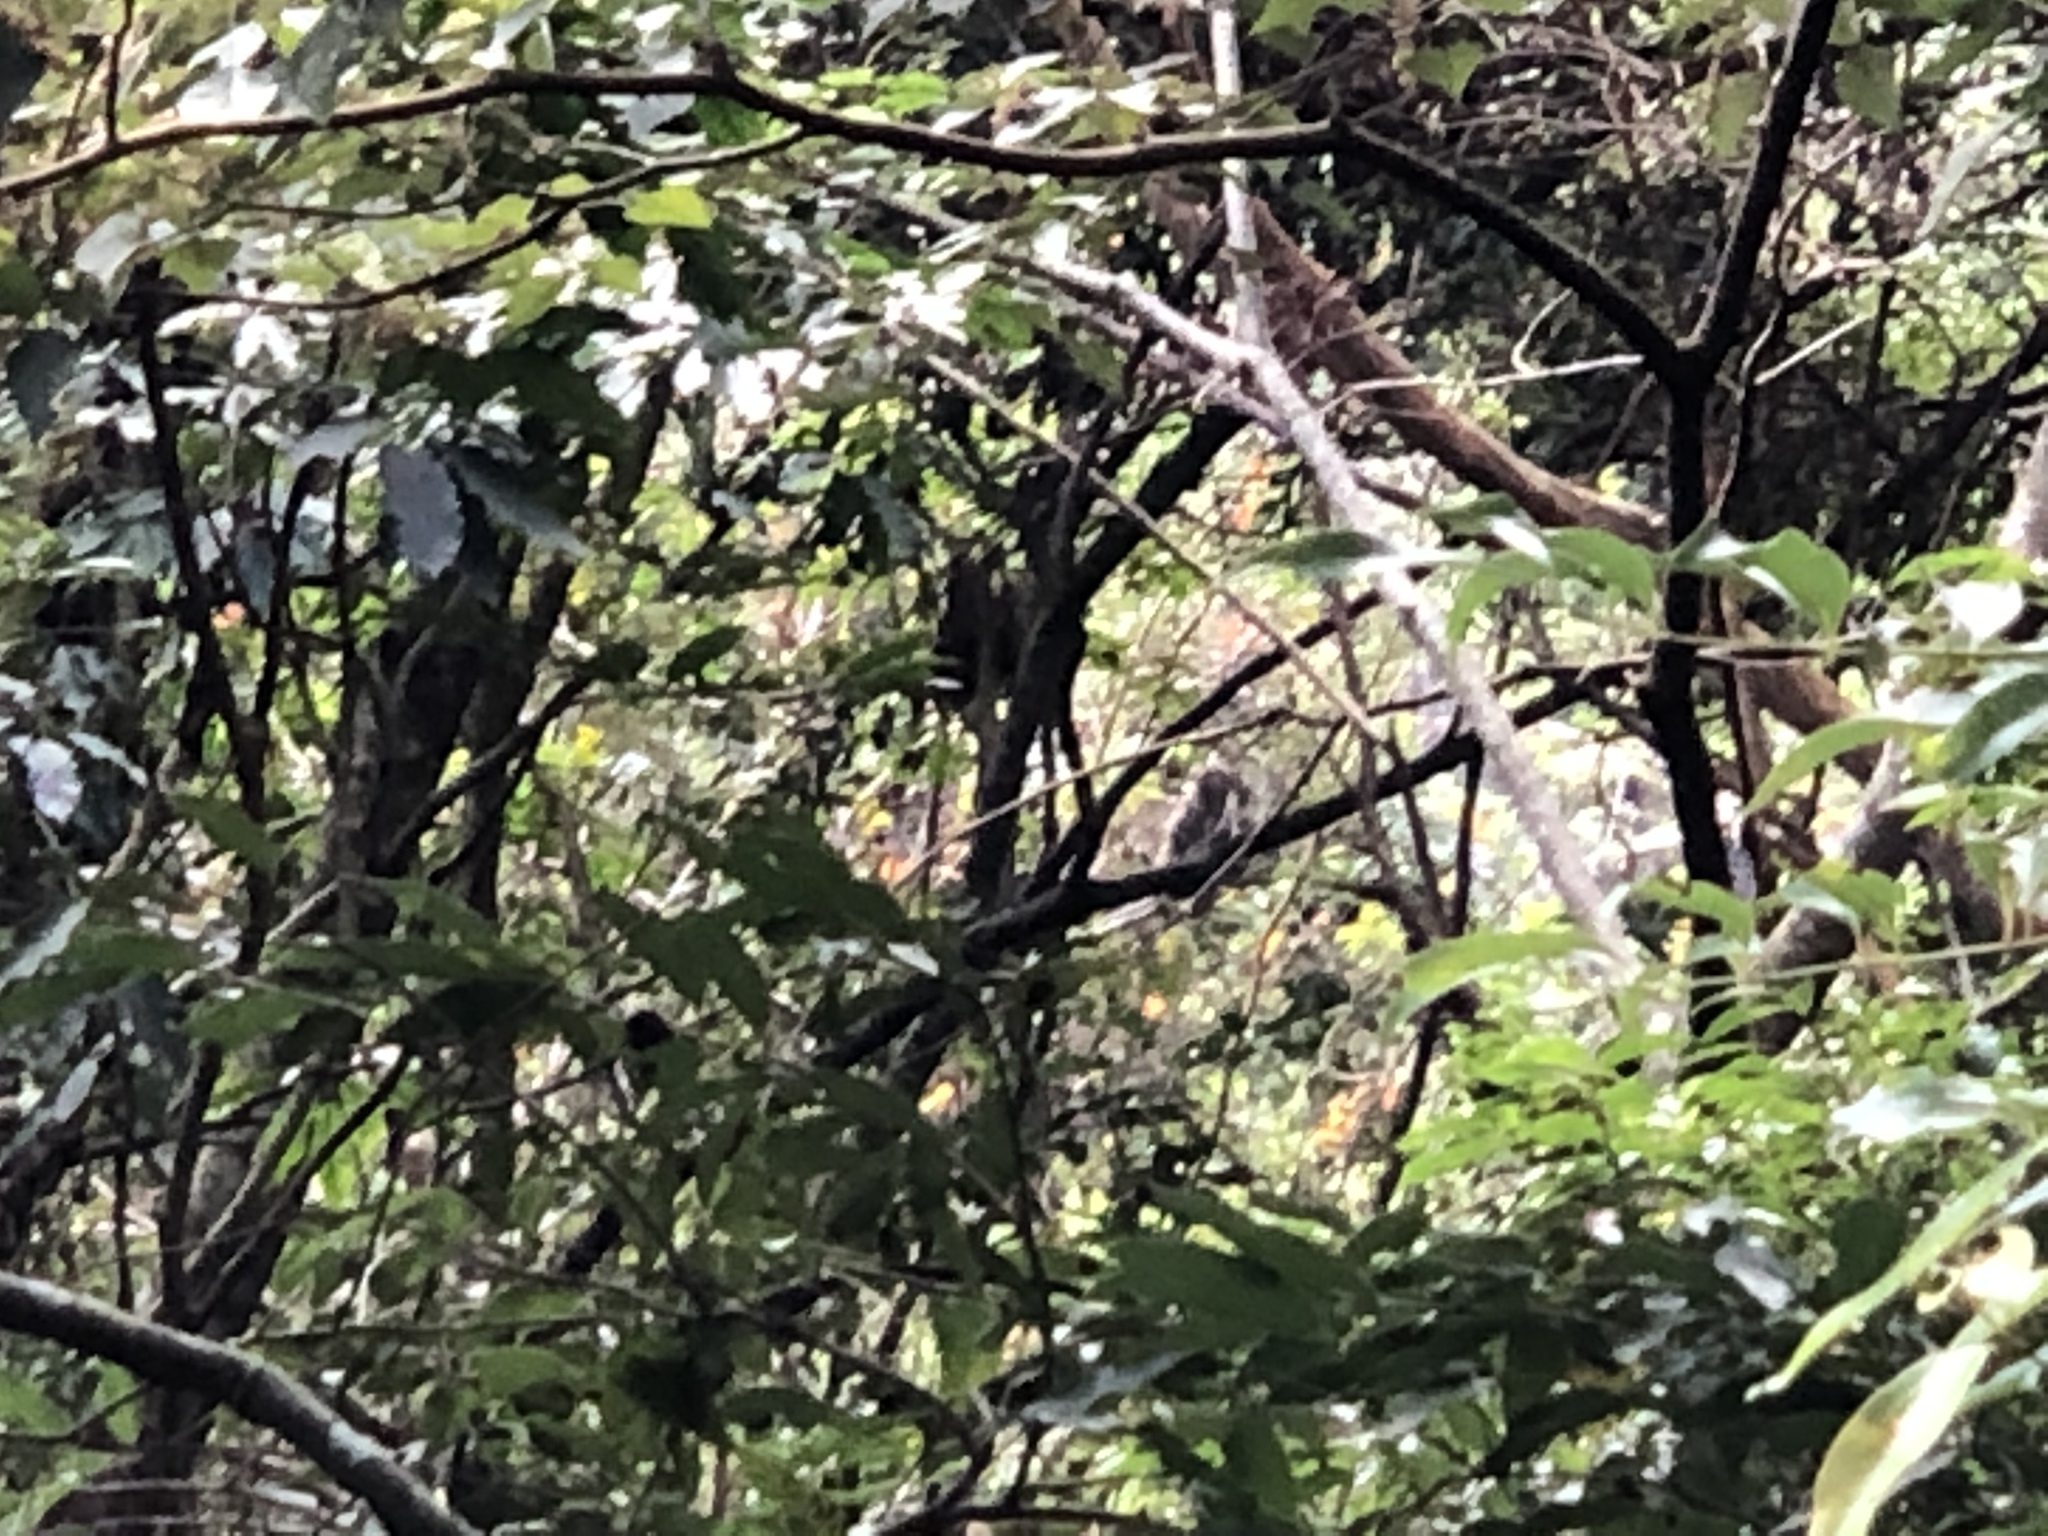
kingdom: Animalia
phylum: Chordata
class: Mammalia
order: Primates
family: Cercopithecidae
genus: Macaca
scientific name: Macaca cyclopis
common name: Formosan rock macaque
